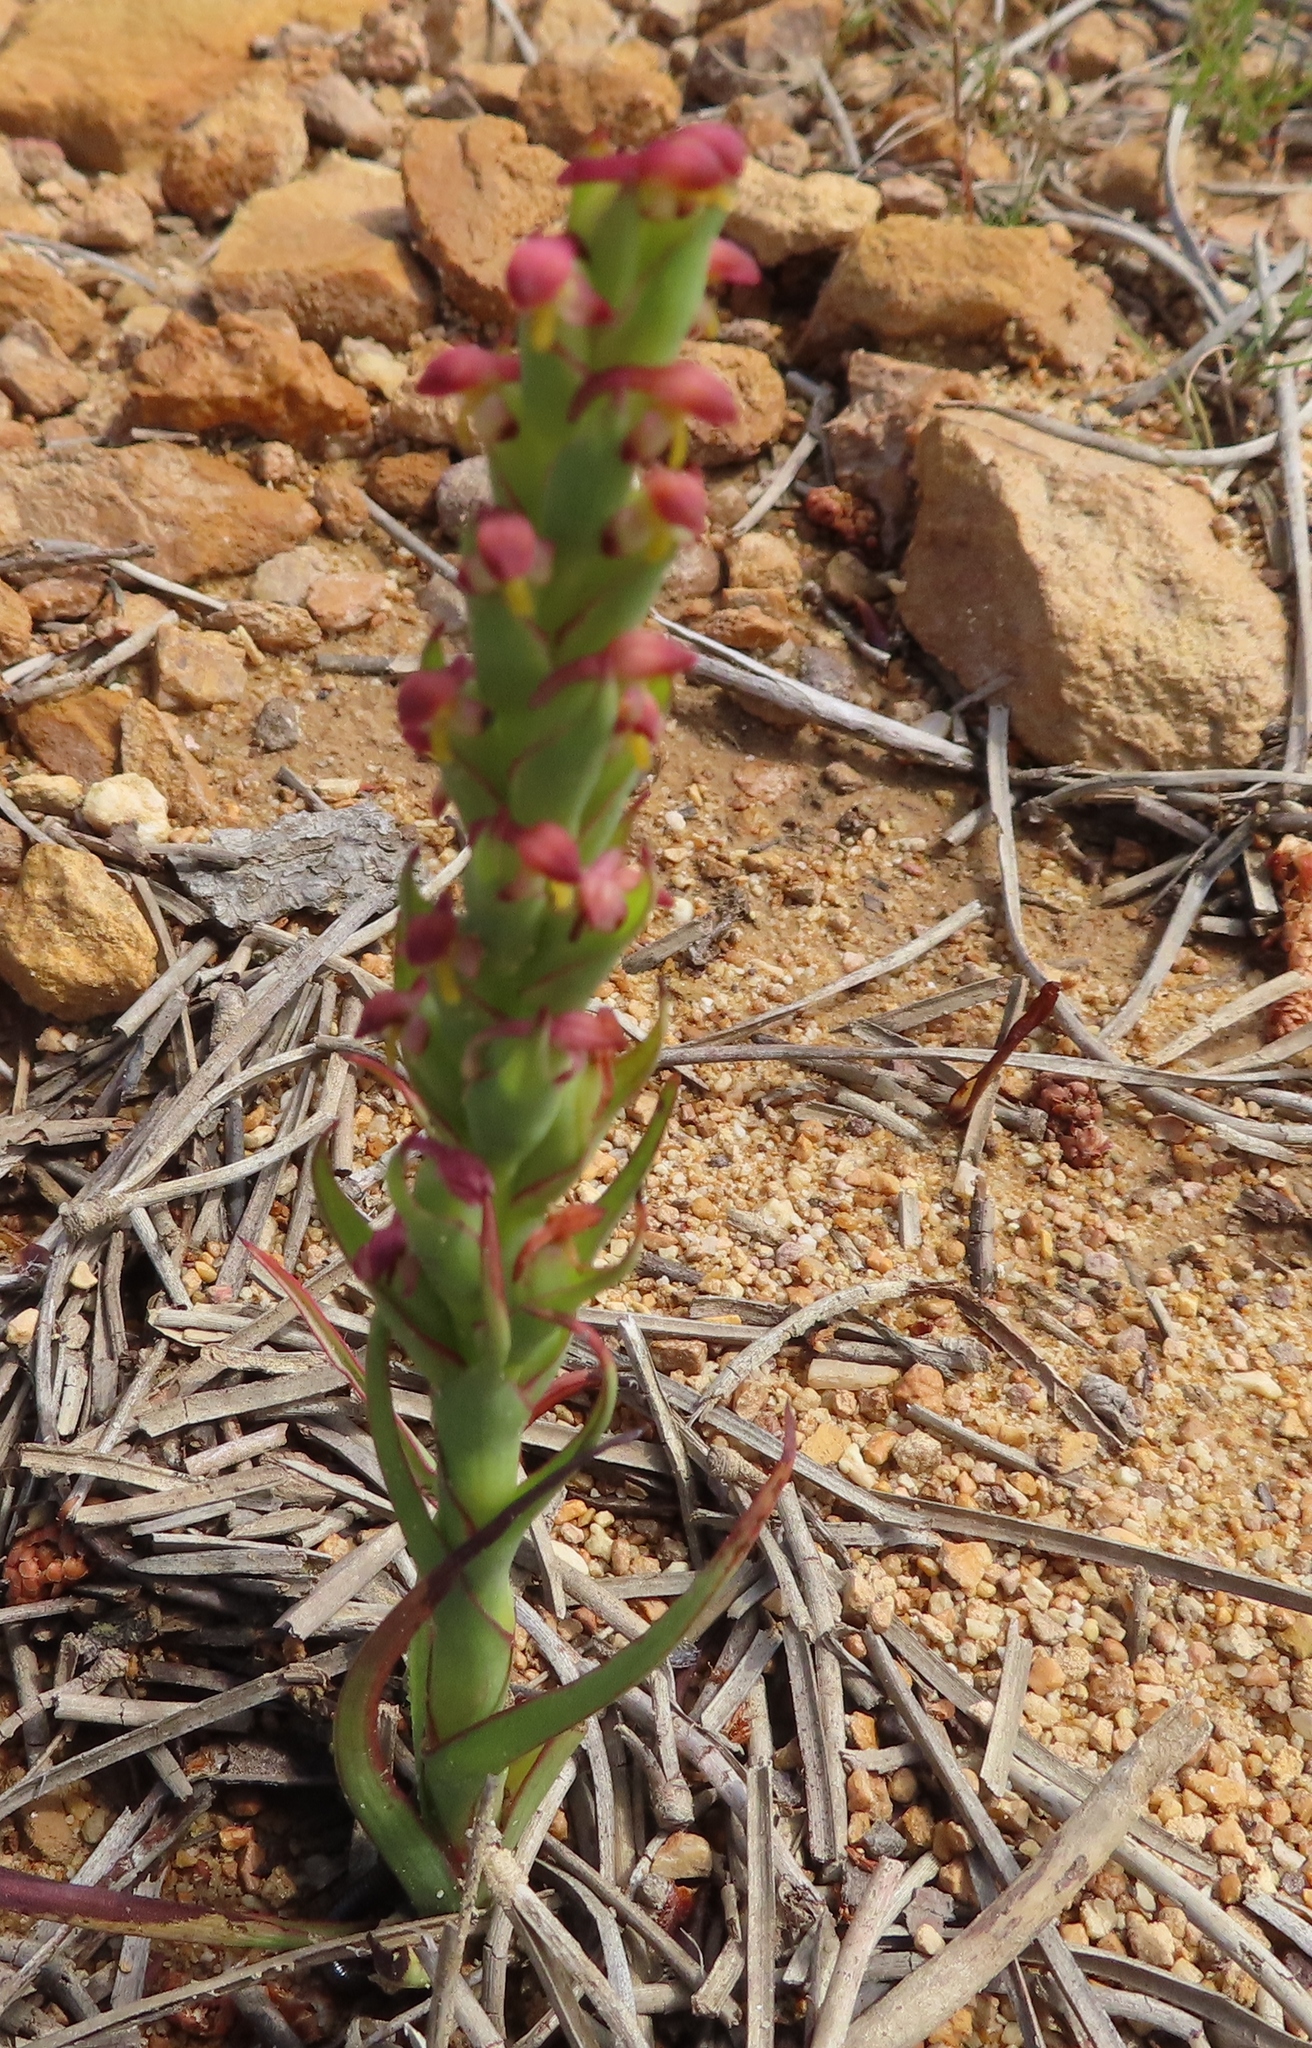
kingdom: Plantae
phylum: Tracheophyta
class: Liliopsida
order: Asparagales
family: Orchidaceae
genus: Disa
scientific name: Disa bracteata
